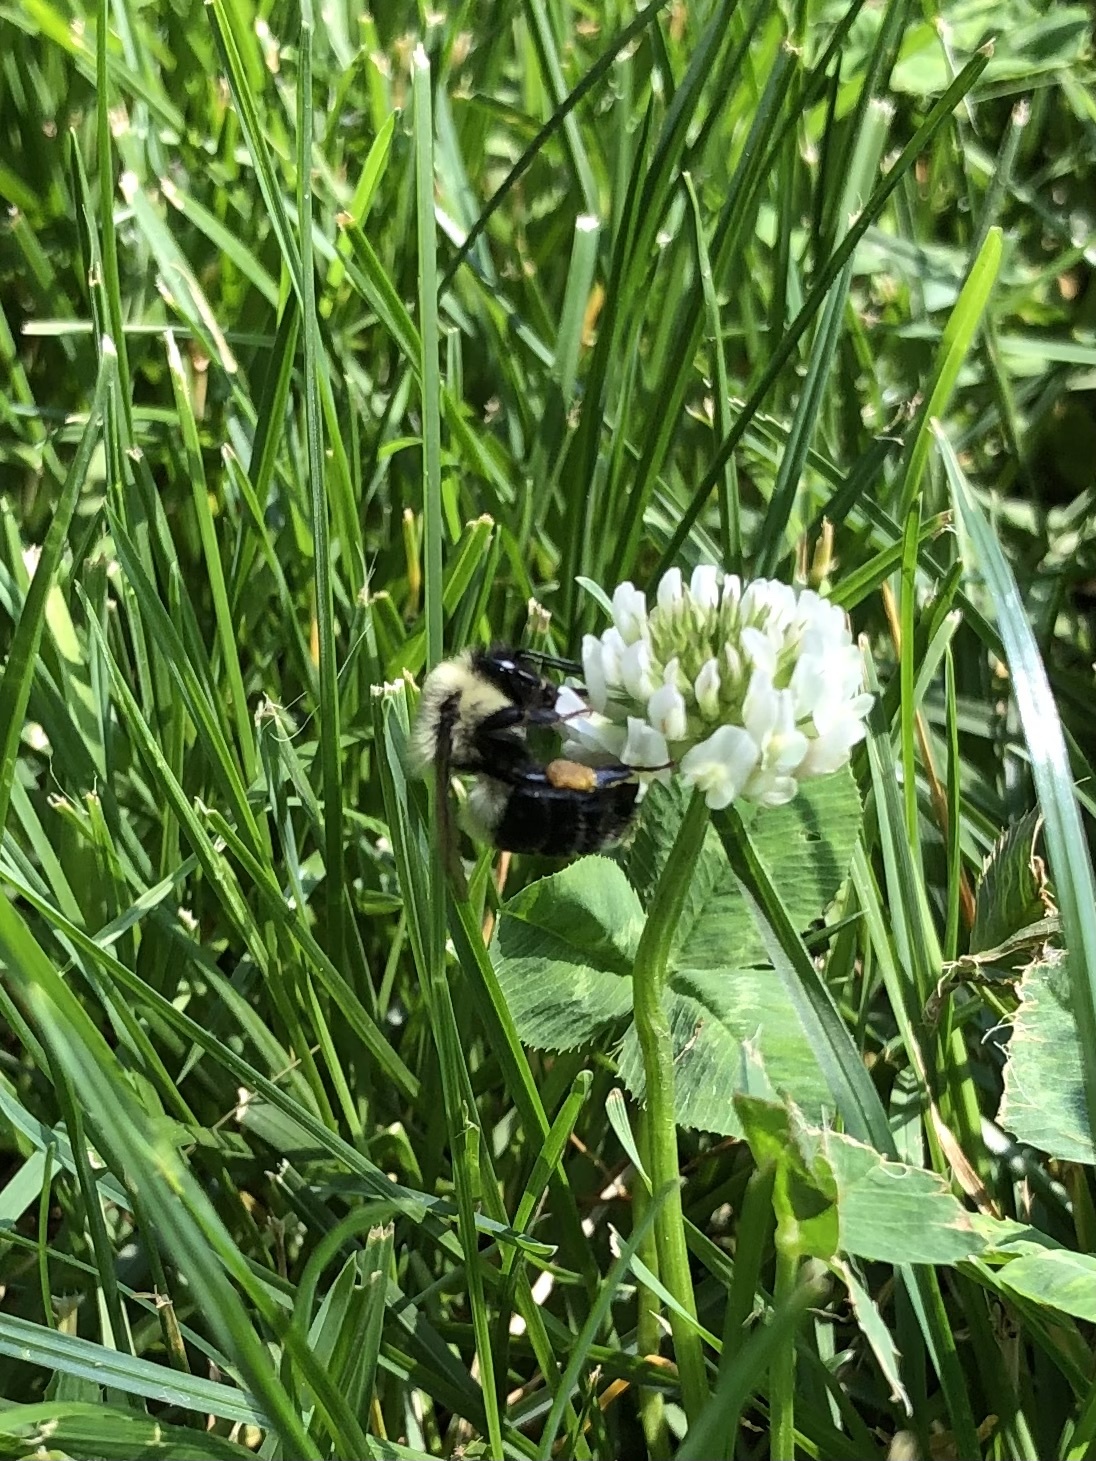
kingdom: Animalia
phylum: Arthropoda
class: Insecta
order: Hymenoptera
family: Apidae
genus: Bombus
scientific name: Bombus impatiens
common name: Common eastern bumble bee
